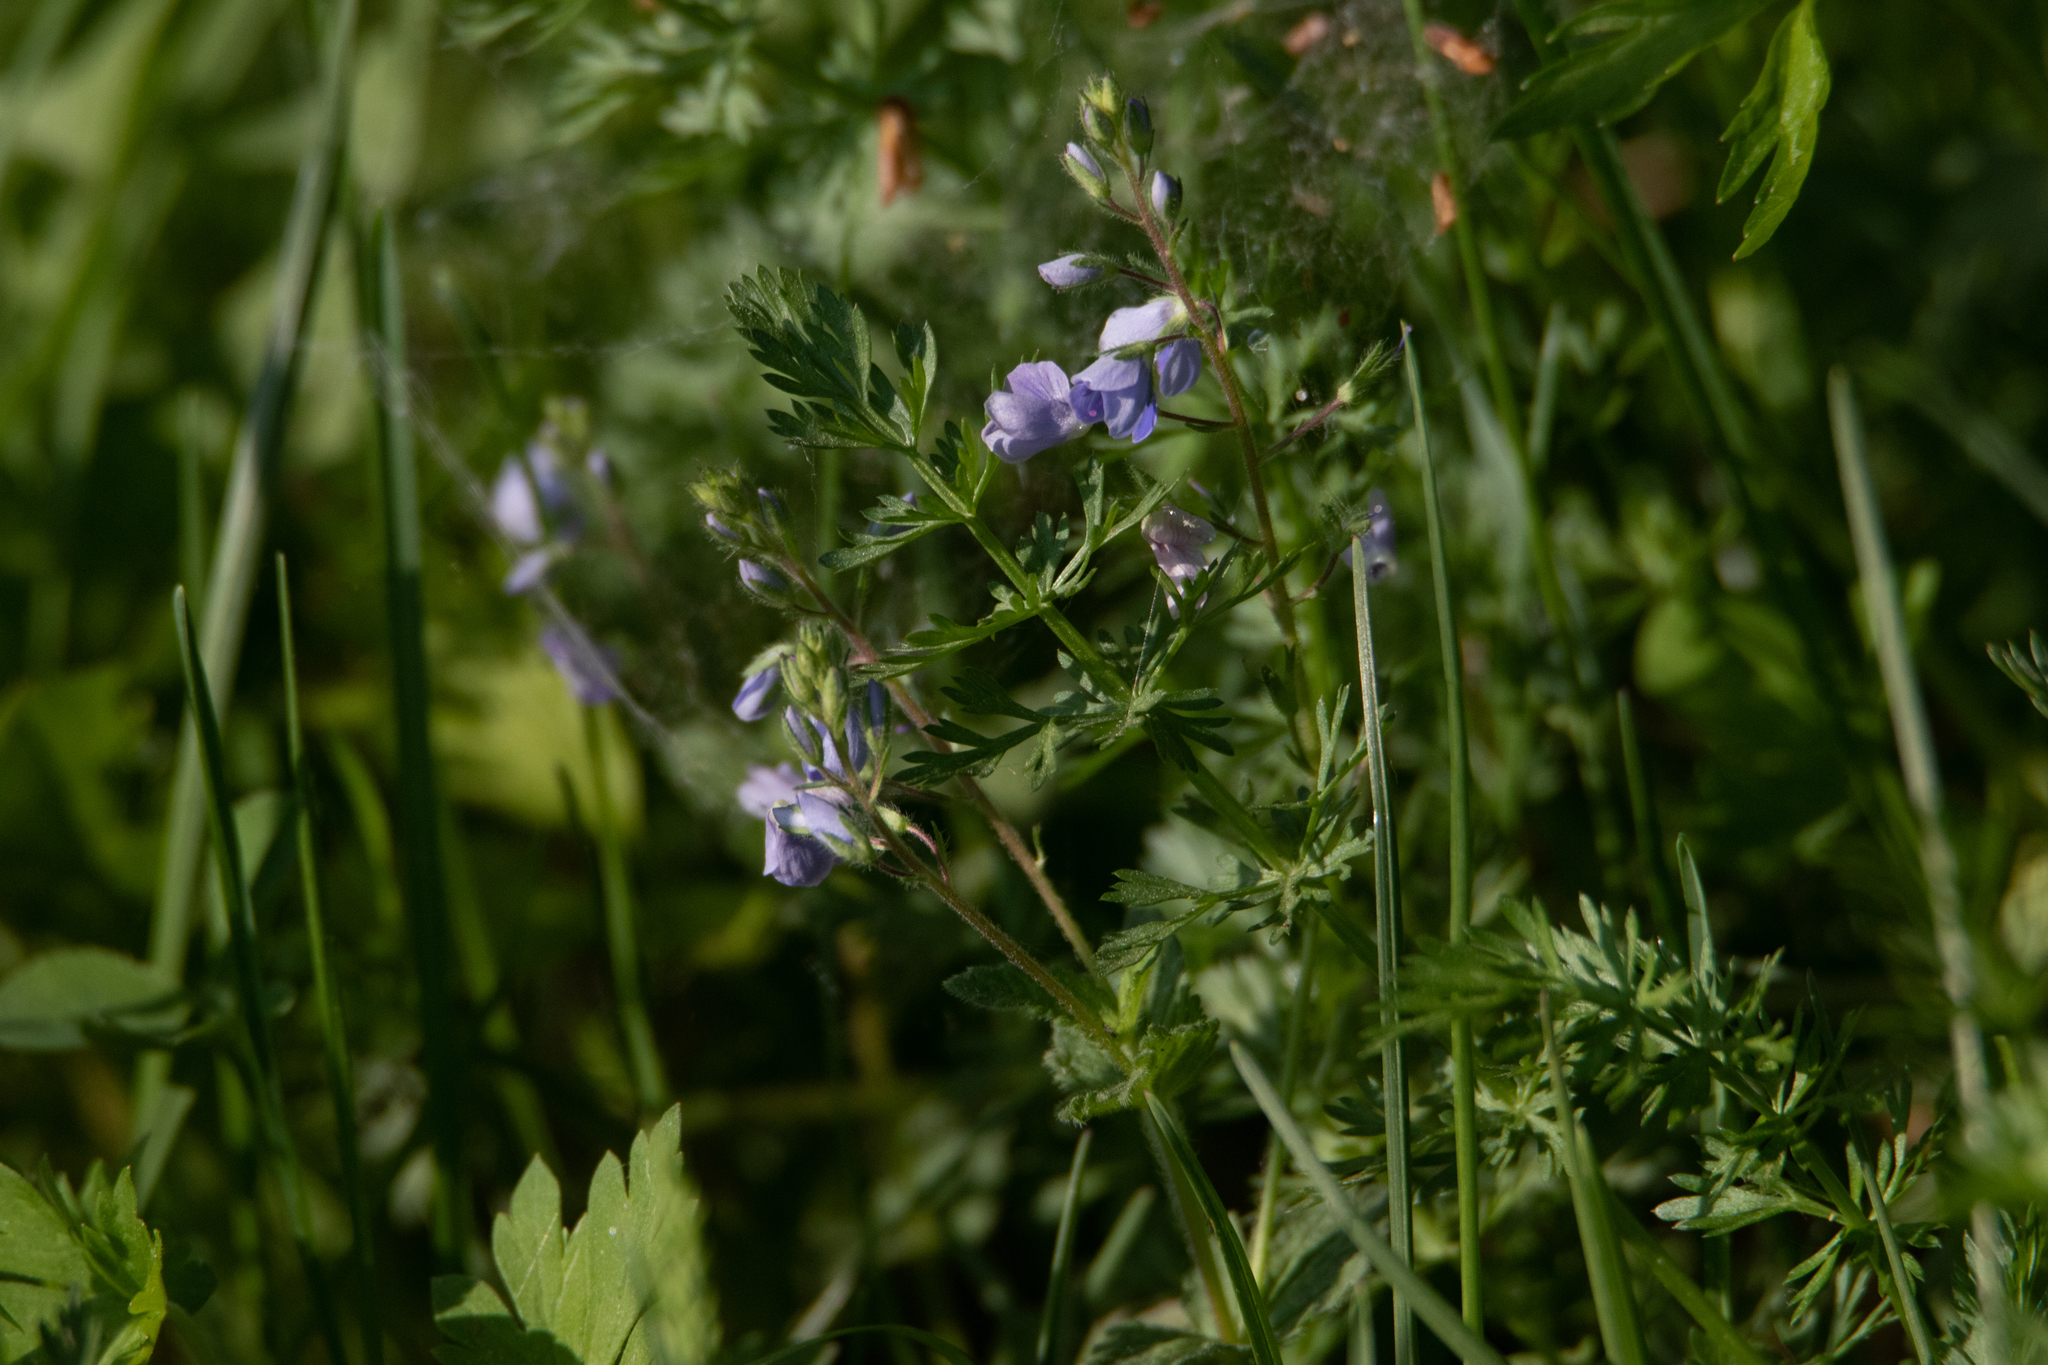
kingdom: Plantae
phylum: Tracheophyta
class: Magnoliopsida
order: Lamiales
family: Plantaginaceae
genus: Veronica
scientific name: Veronica chamaedrys
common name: Germander speedwell
